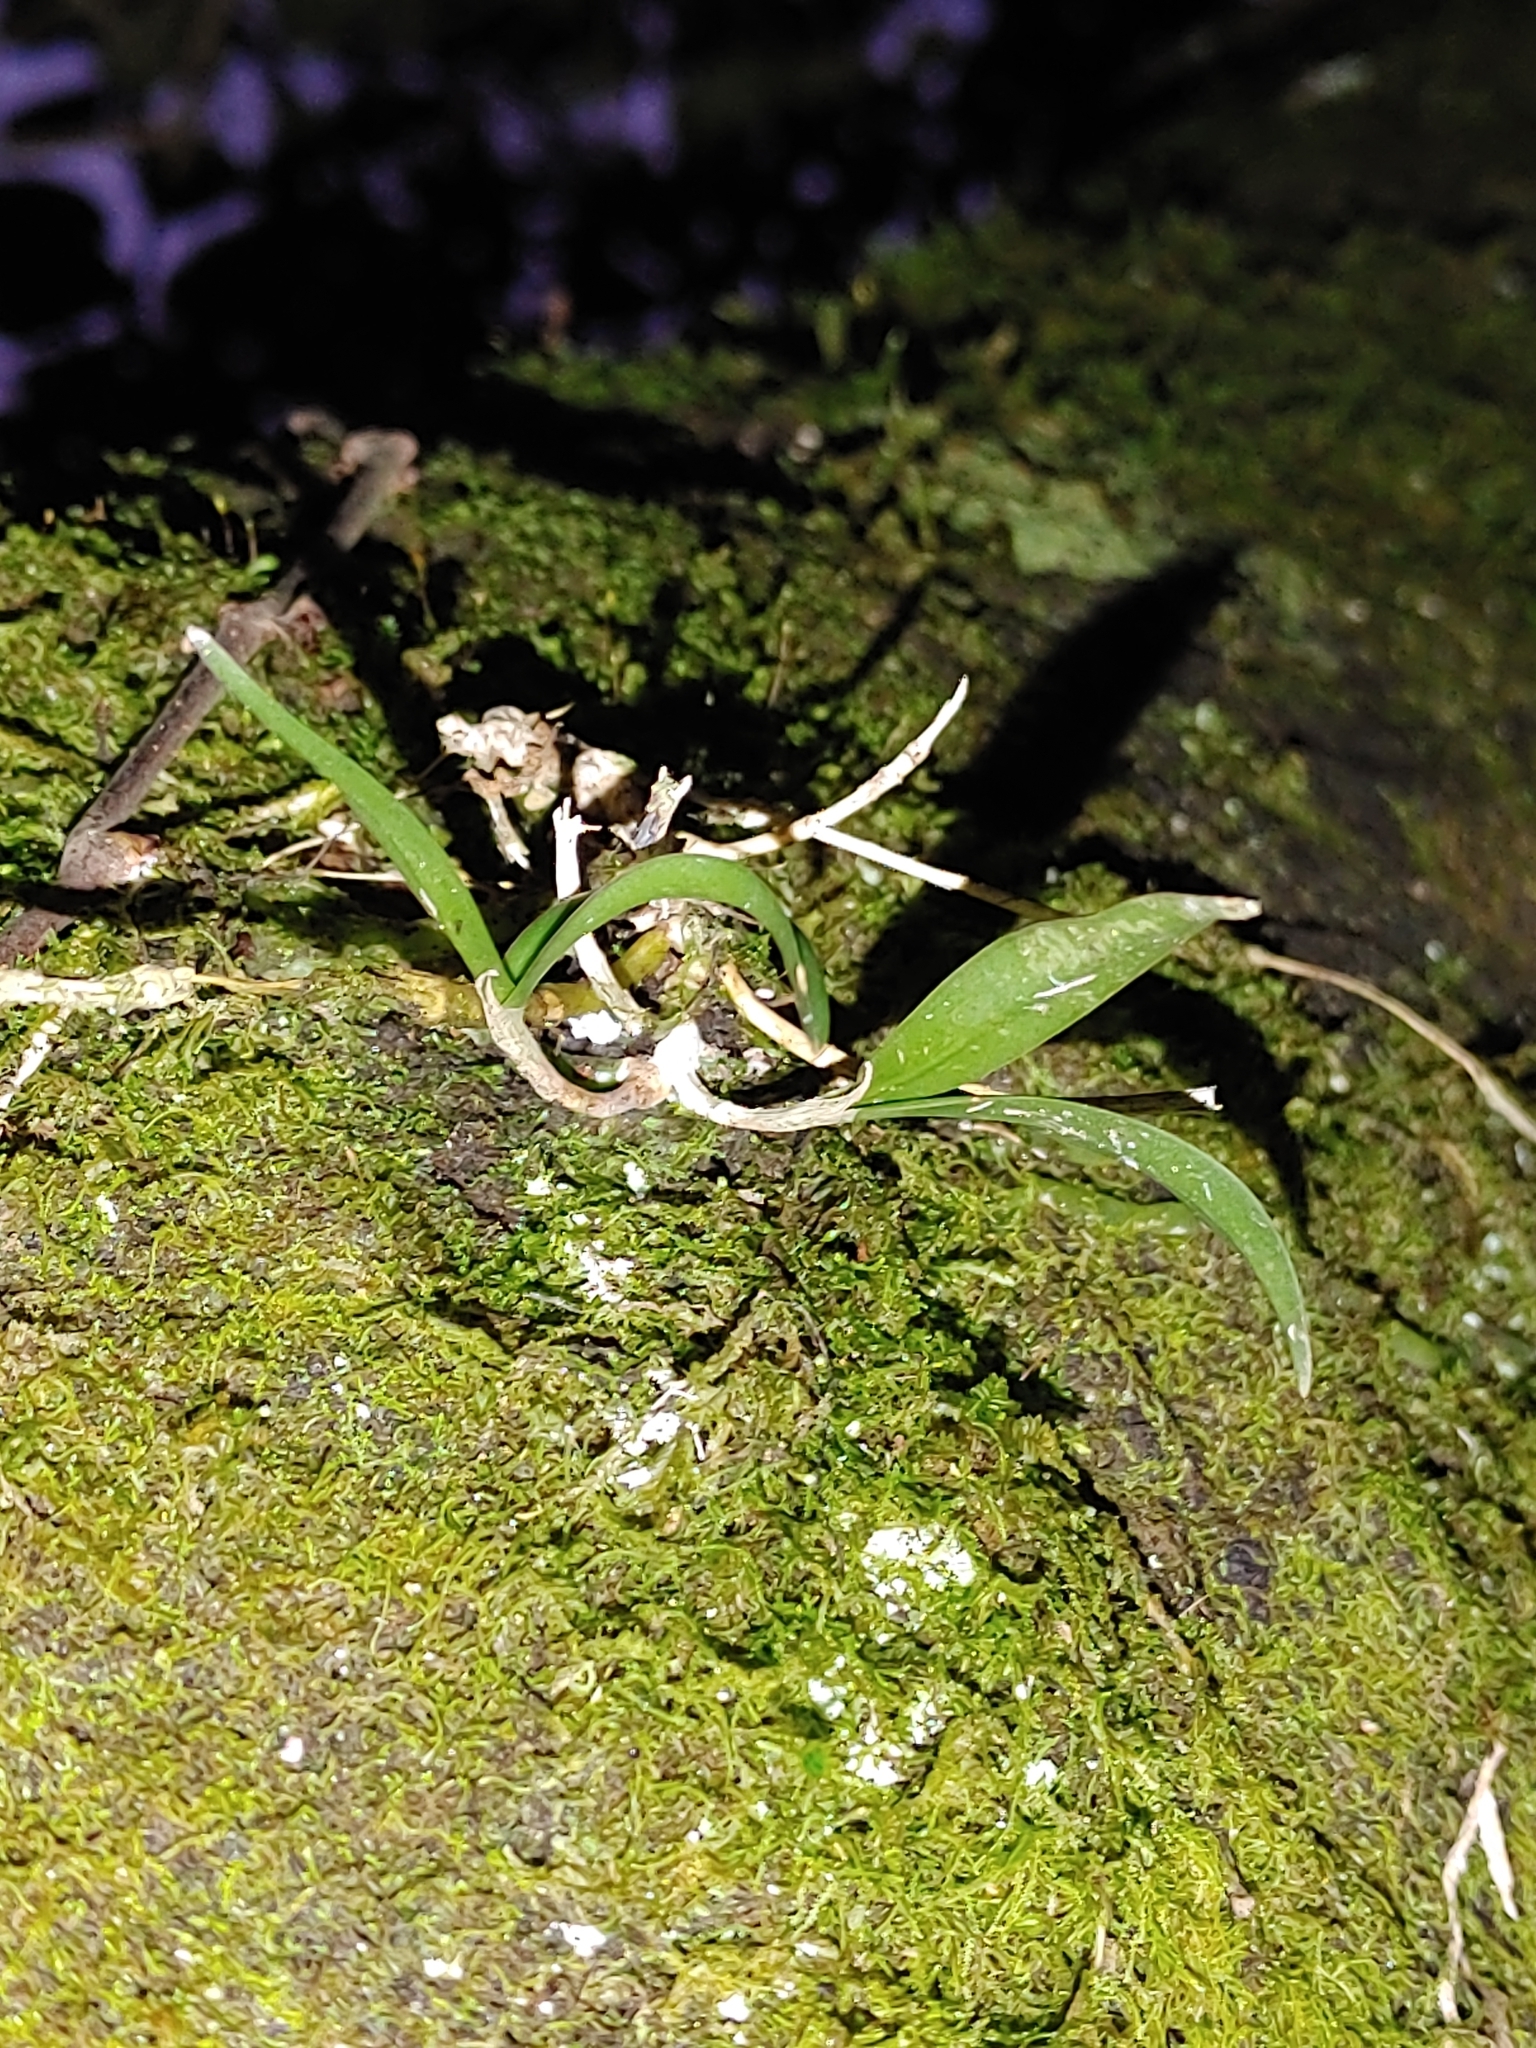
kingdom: Plantae
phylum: Tracheophyta
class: Liliopsida
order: Asparagales
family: Orchidaceae
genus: Epidendrum
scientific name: Epidendrum conopseum
